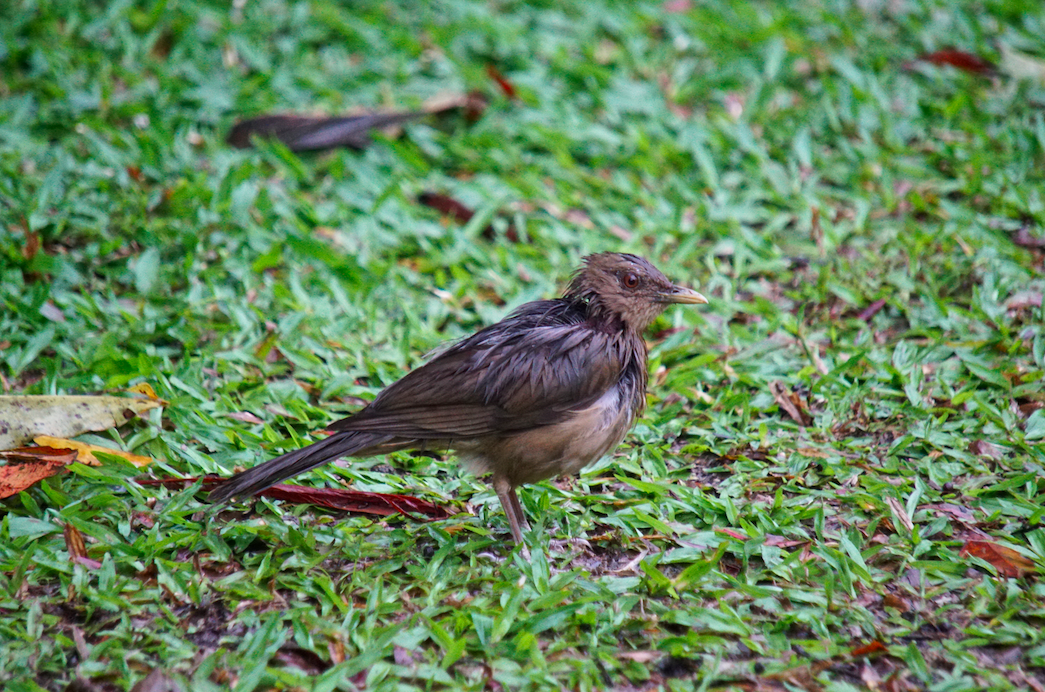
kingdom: Animalia
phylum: Chordata
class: Aves
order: Passeriformes
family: Turdidae
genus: Turdus
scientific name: Turdus grayi
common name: Clay-colored thrush
